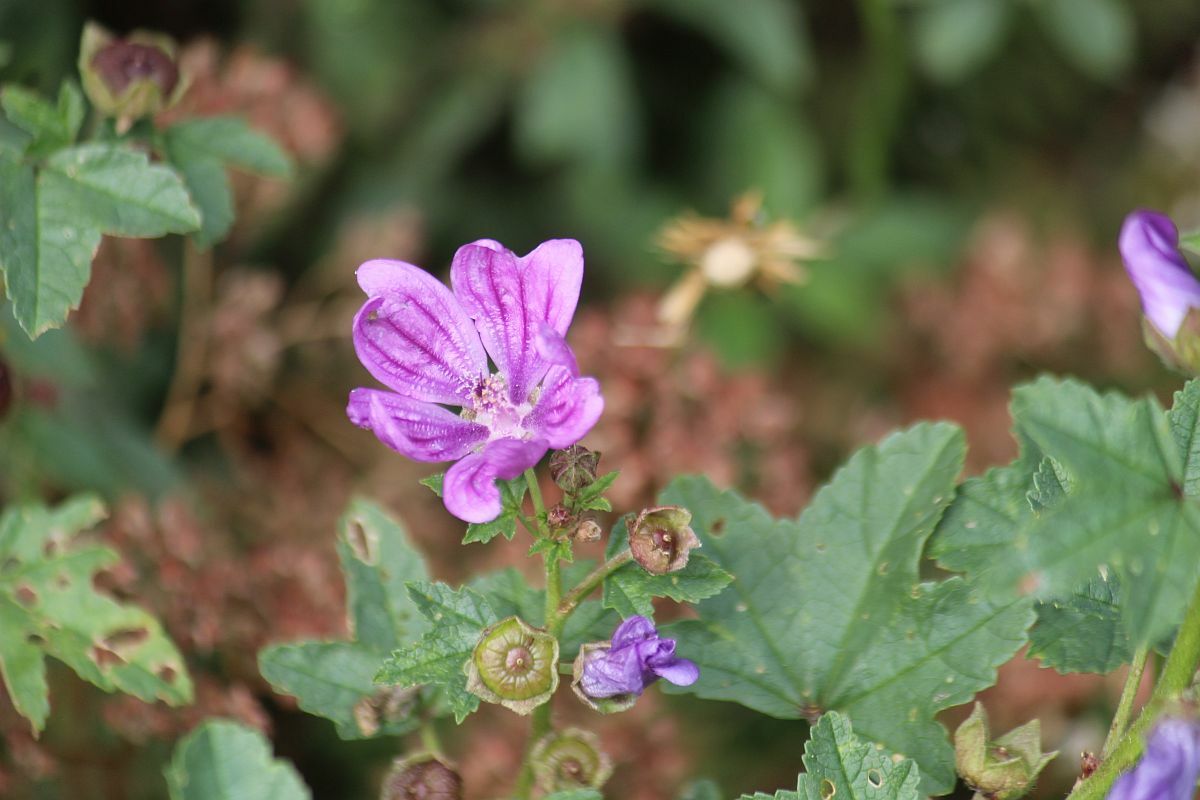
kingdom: Plantae
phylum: Tracheophyta
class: Magnoliopsida
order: Malvales
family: Malvaceae
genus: Malva
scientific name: Malva sylvestris
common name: Common mallow
